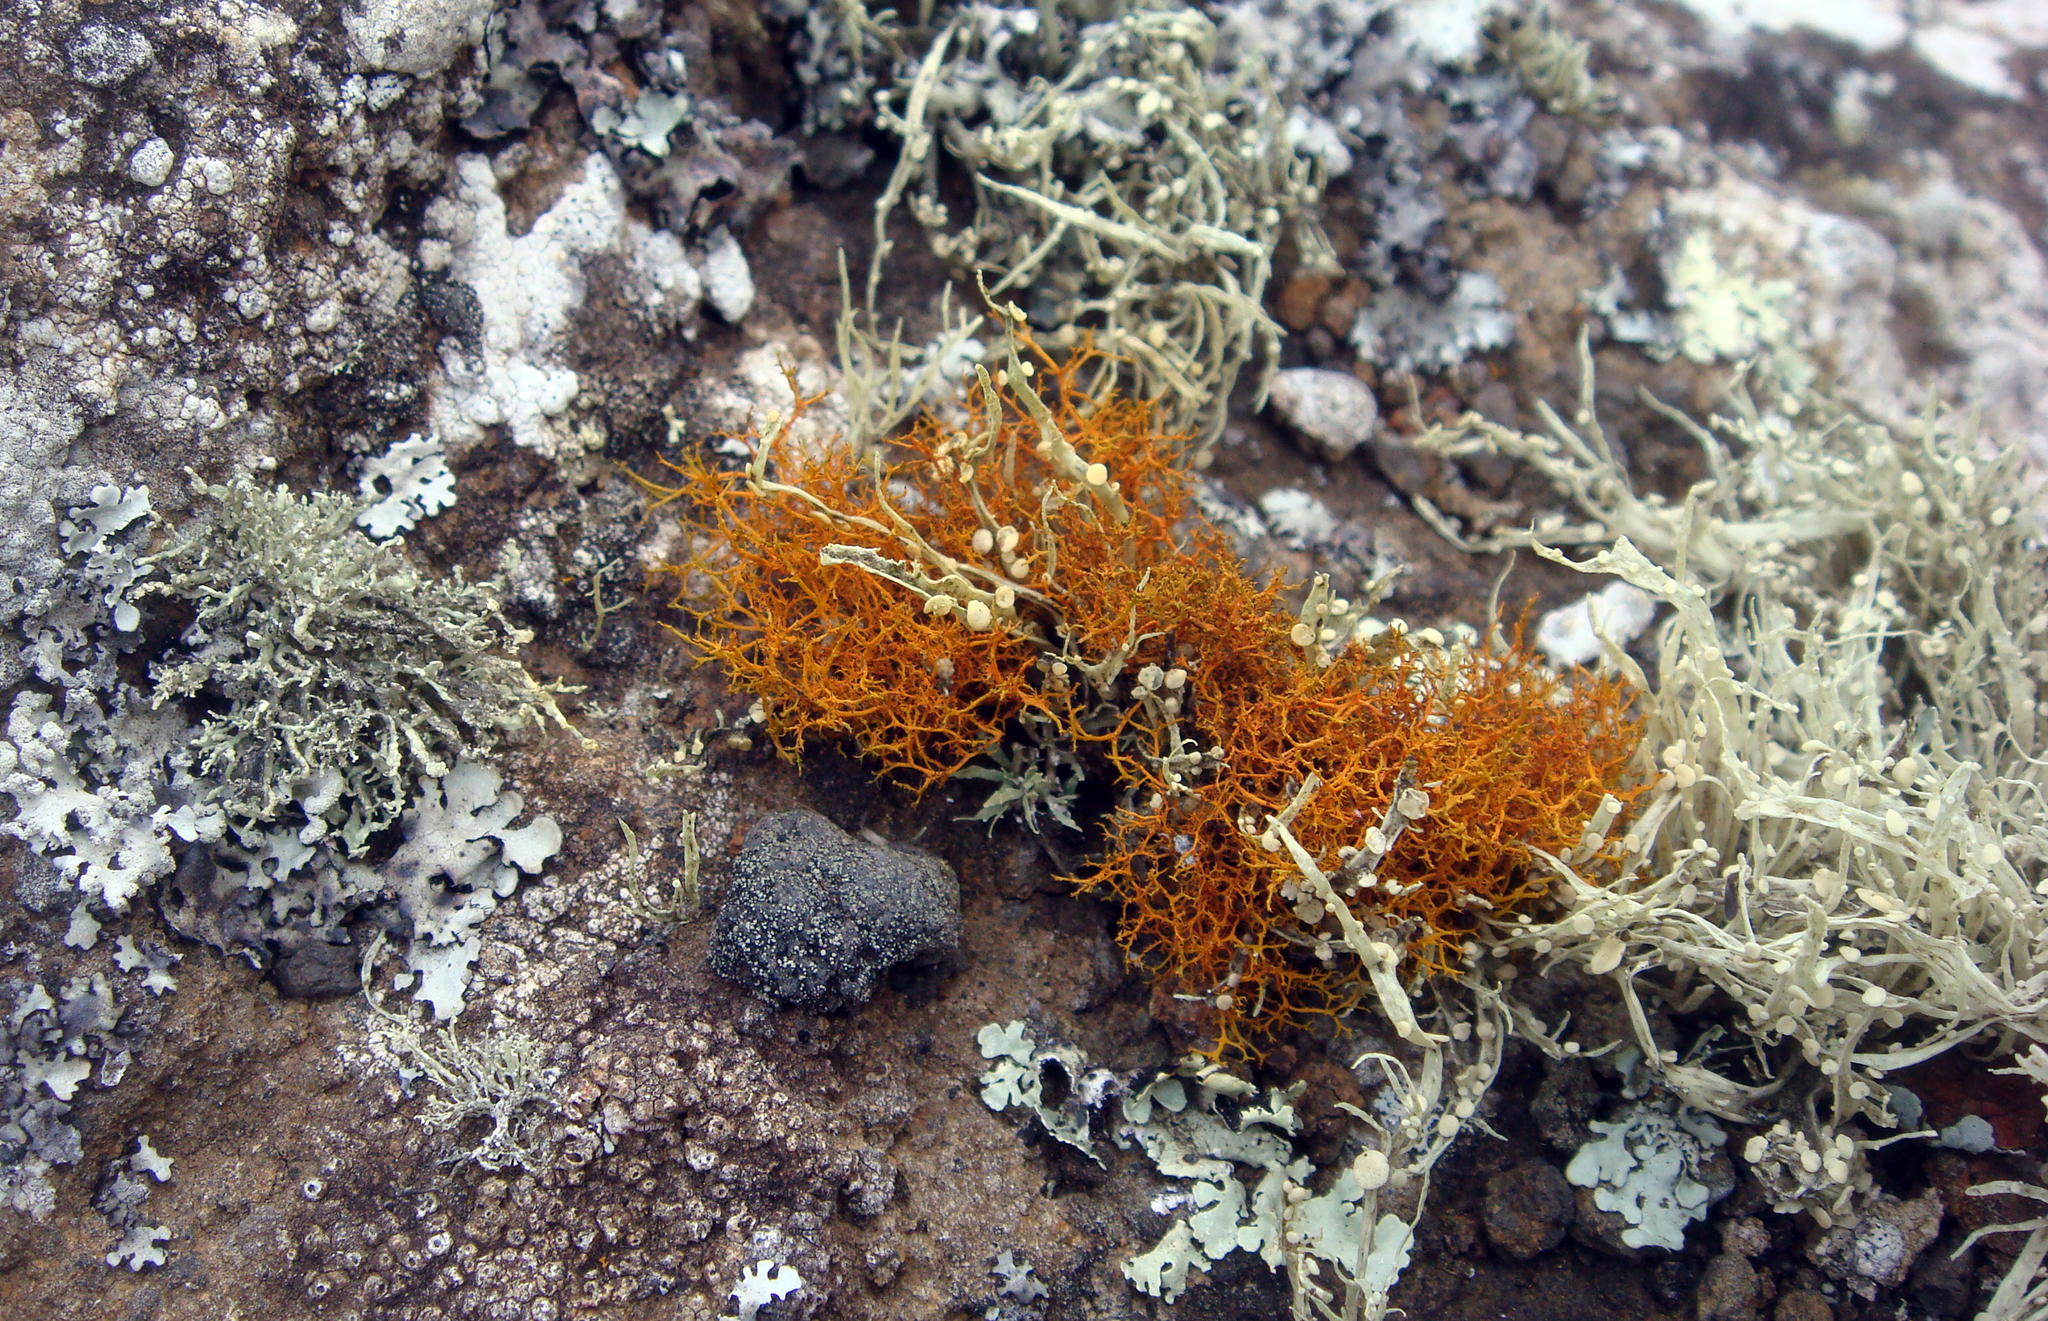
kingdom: Fungi
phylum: Ascomycota
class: Lecanoromycetes
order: Teloschistales
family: Teloschistaceae
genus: Teloschistes
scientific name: Teloschistes flavicans
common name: Golden hair-lichen
